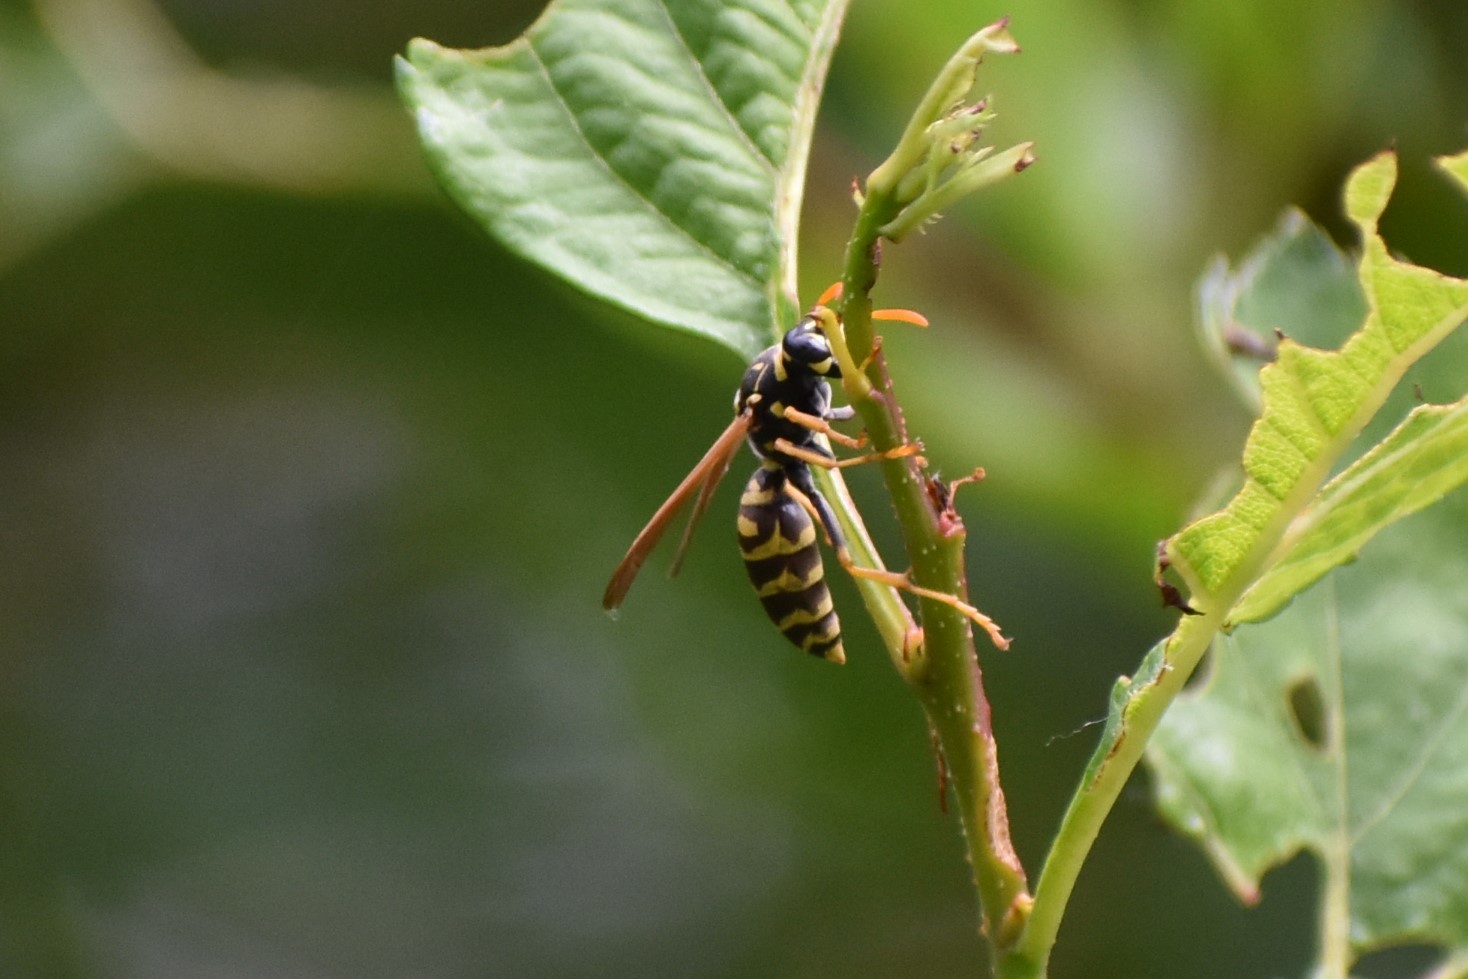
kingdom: Animalia
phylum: Arthropoda
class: Insecta
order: Hymenoptera
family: Eumenidae
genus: Polistes
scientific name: Polistes dominula
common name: Paper wasp
